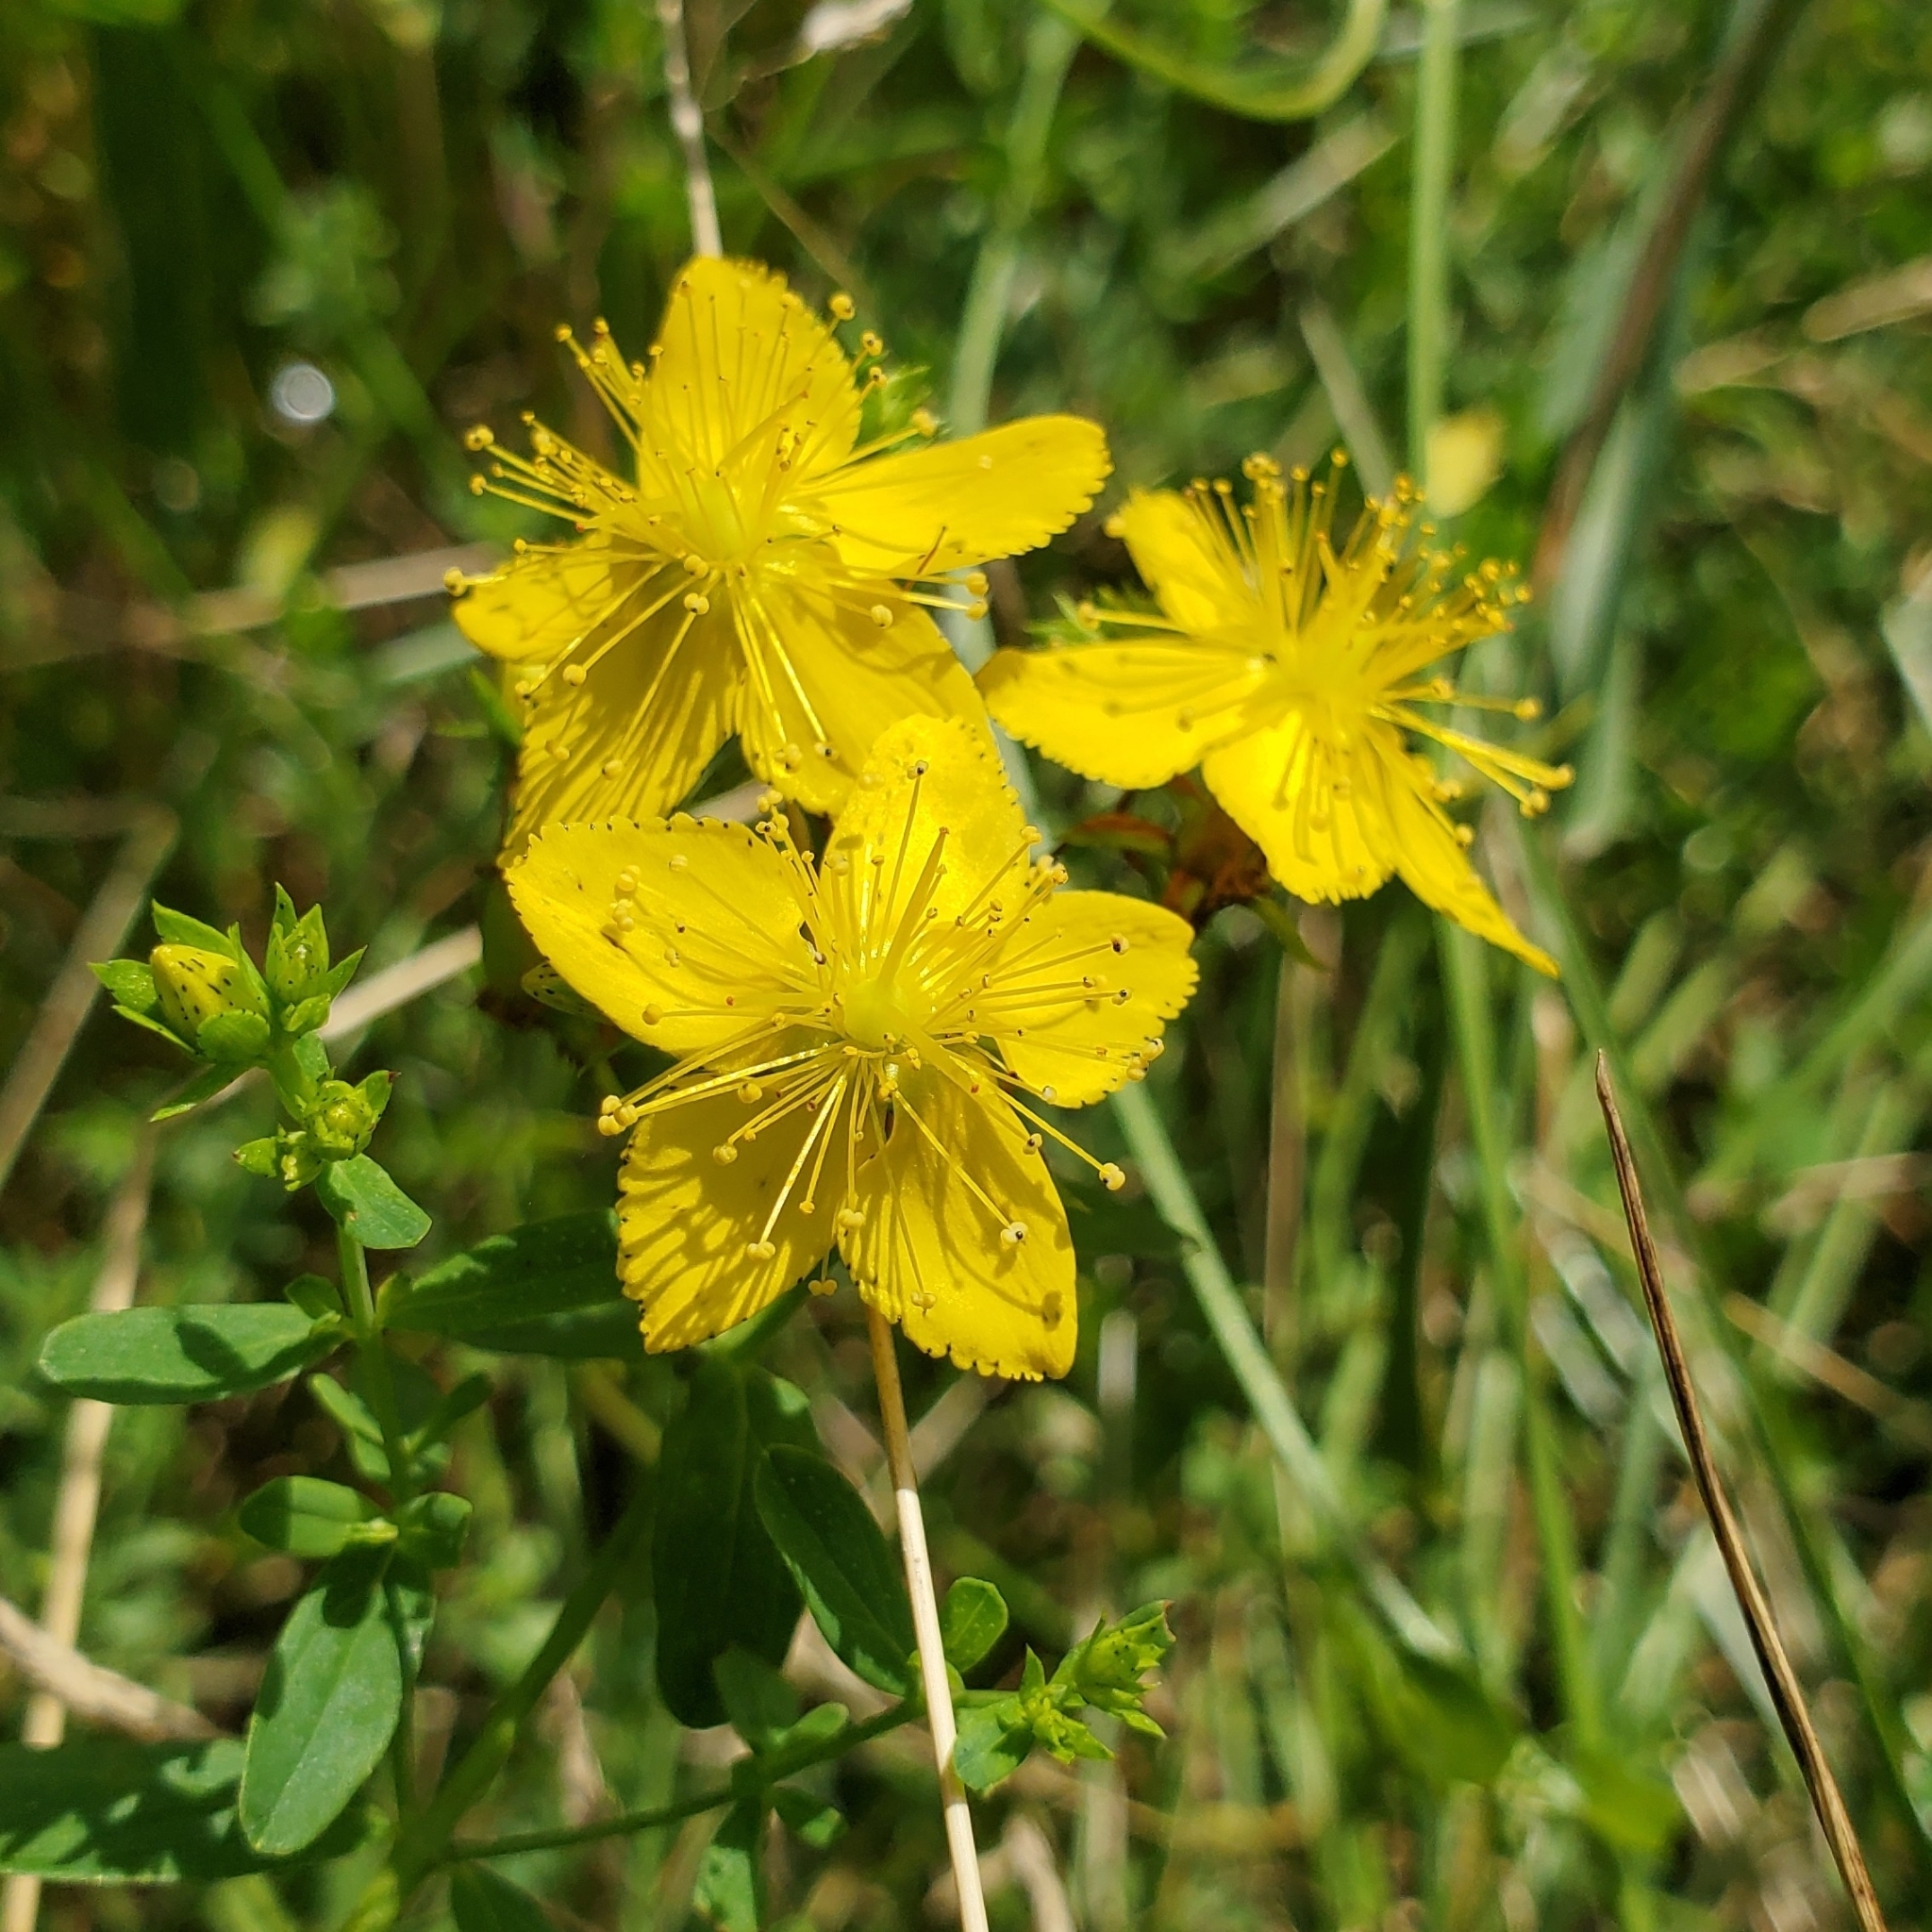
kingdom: Plantae
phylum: Tracheophyta
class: Magnoliopsida
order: Malpighiales
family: Hypericaceae
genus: Hypericum
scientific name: Hypericum perforatum
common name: Common st. johnswort
